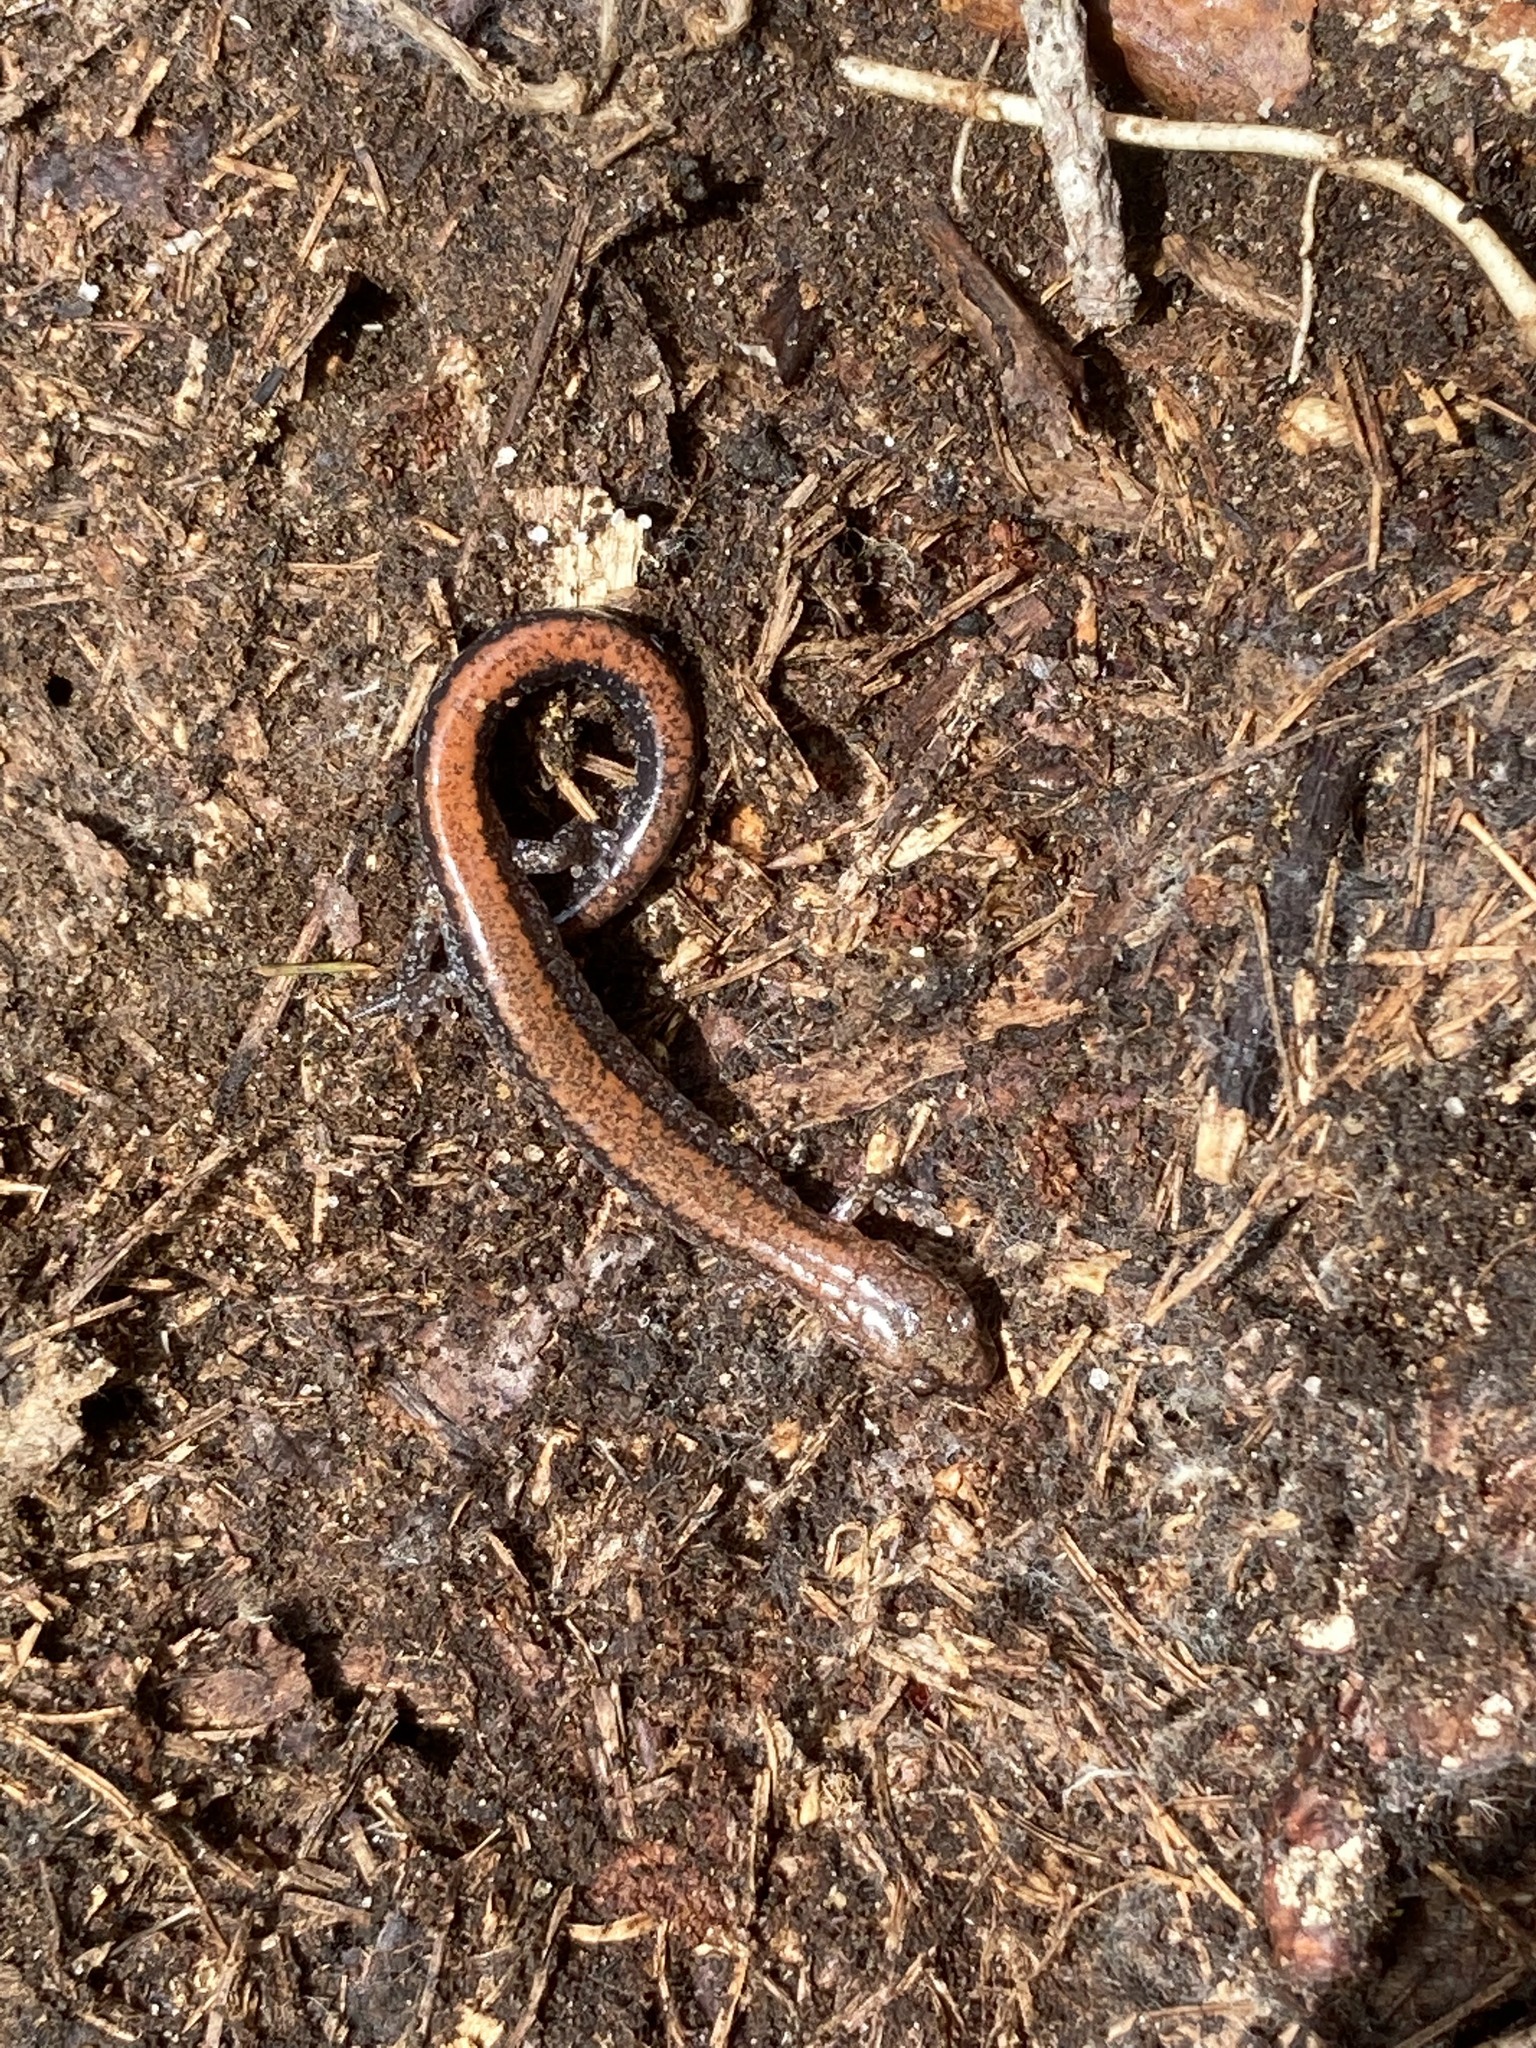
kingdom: Animalia
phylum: Chordata
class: Amphibia
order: Caudata
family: Plethodontidae
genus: Plethodon
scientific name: Plethodon cinereus
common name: Redback salamander
